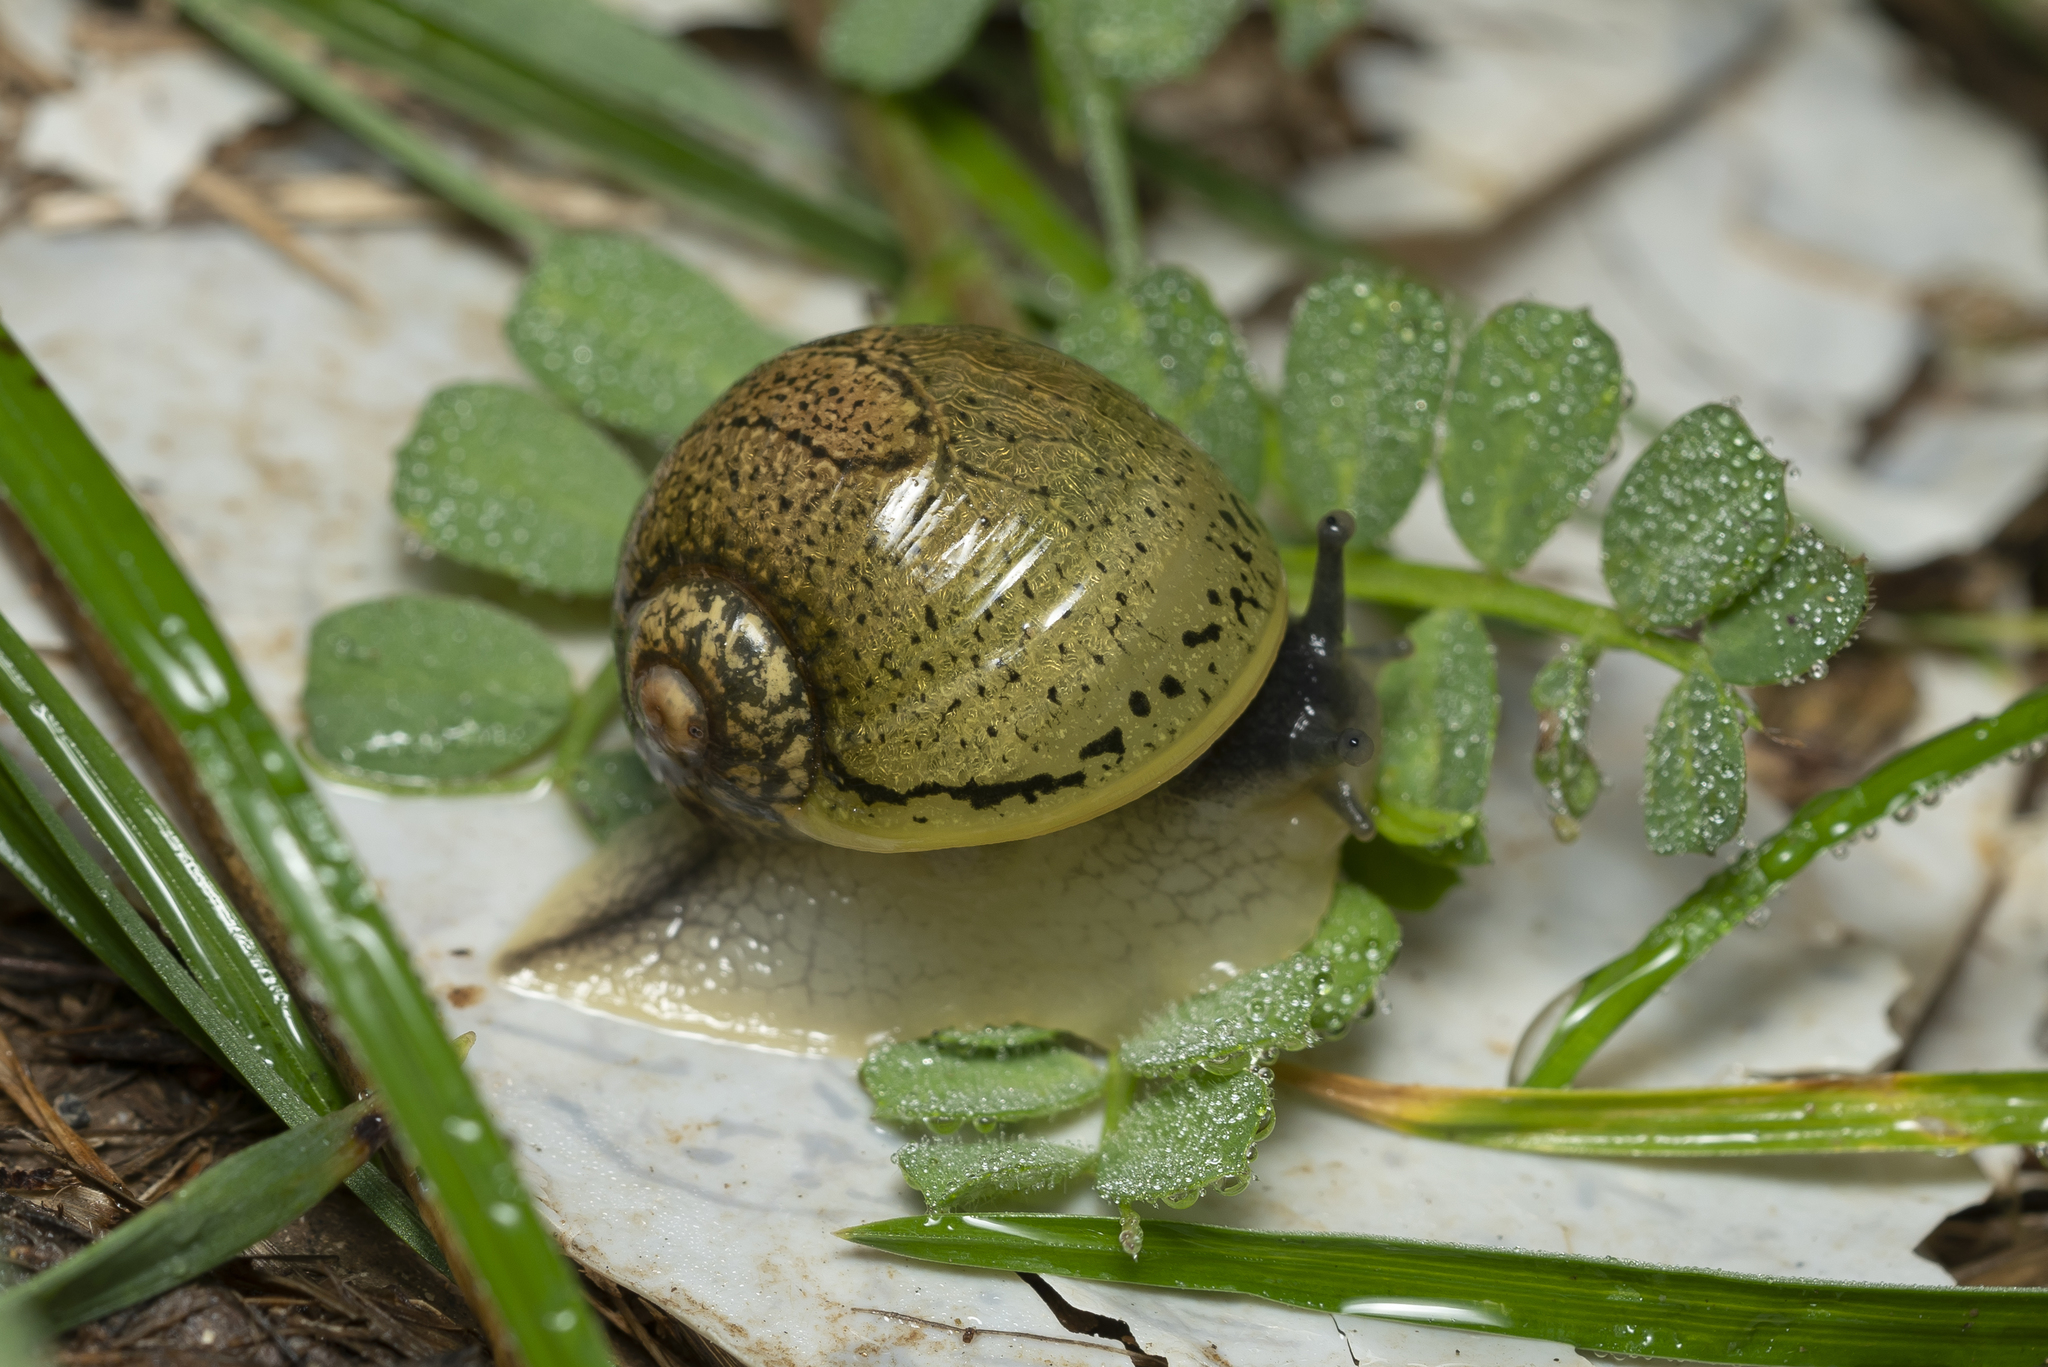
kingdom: Animalia
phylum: Mollusca
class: Gastropoda
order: Stylommatophora
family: Helicidae
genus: Cantareus
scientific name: Cantareus apertus
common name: Green gardensnail
